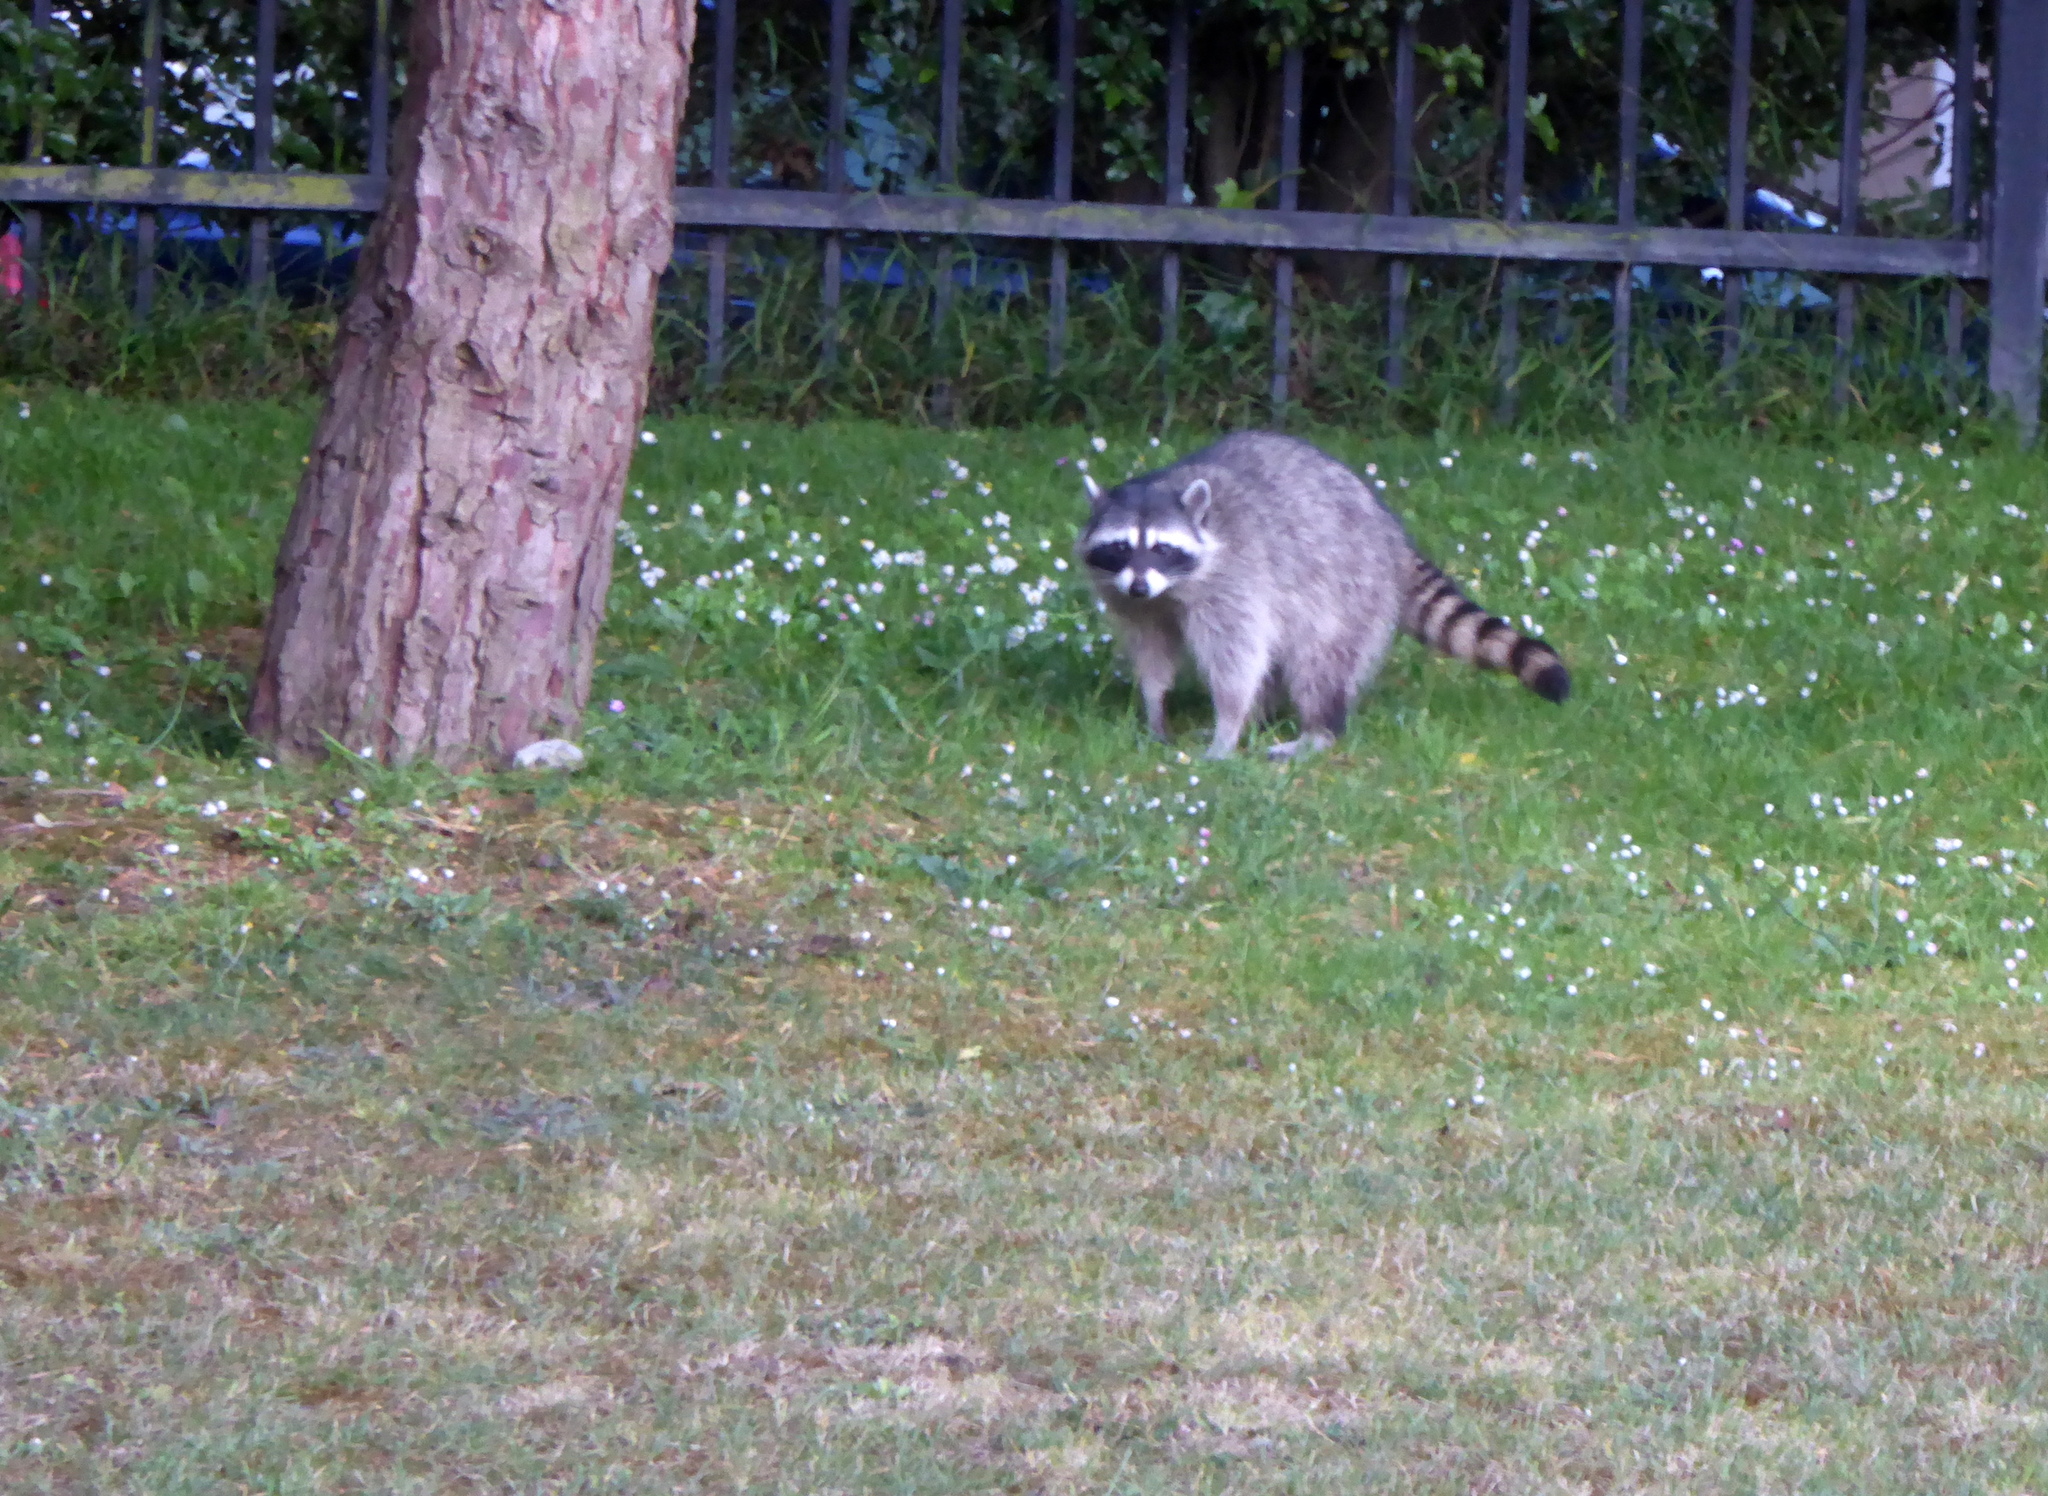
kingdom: Animalia
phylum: Chordata
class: Mammalia
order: Carnivora
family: Procyonidae
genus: Procyon
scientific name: Procyon lotor
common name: Raccoon
